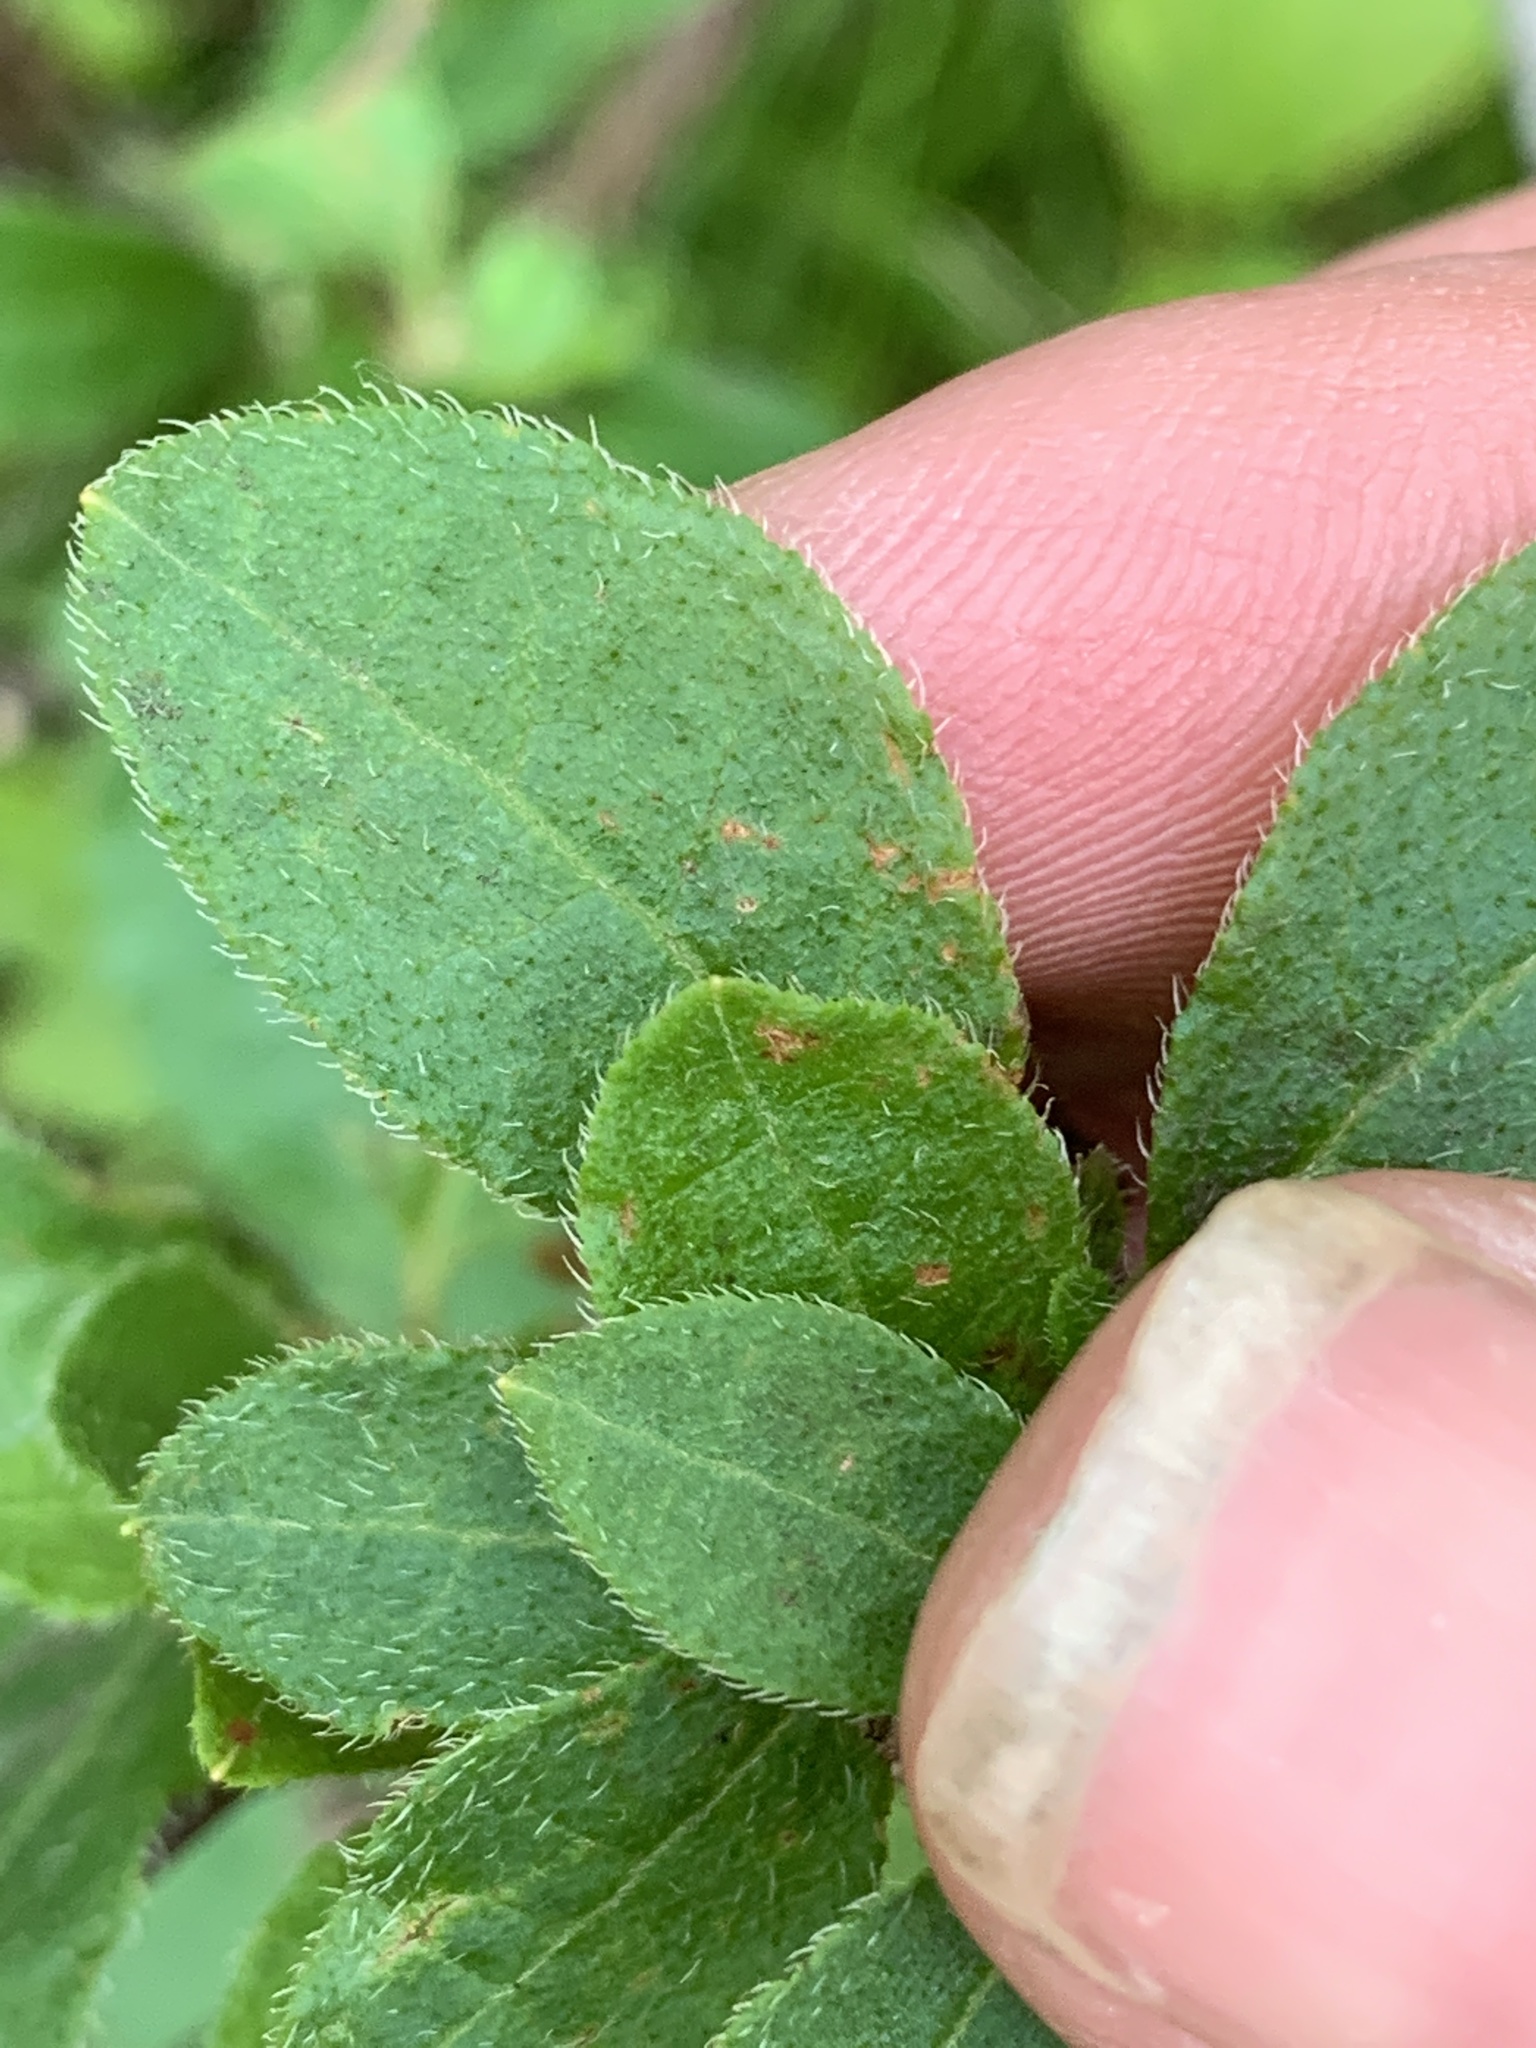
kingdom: Plantae
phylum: Tracheophyta
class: Magnoliopsida
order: Ericales
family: Ericaceae
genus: Rhododendron
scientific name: Rhododendron roseum
